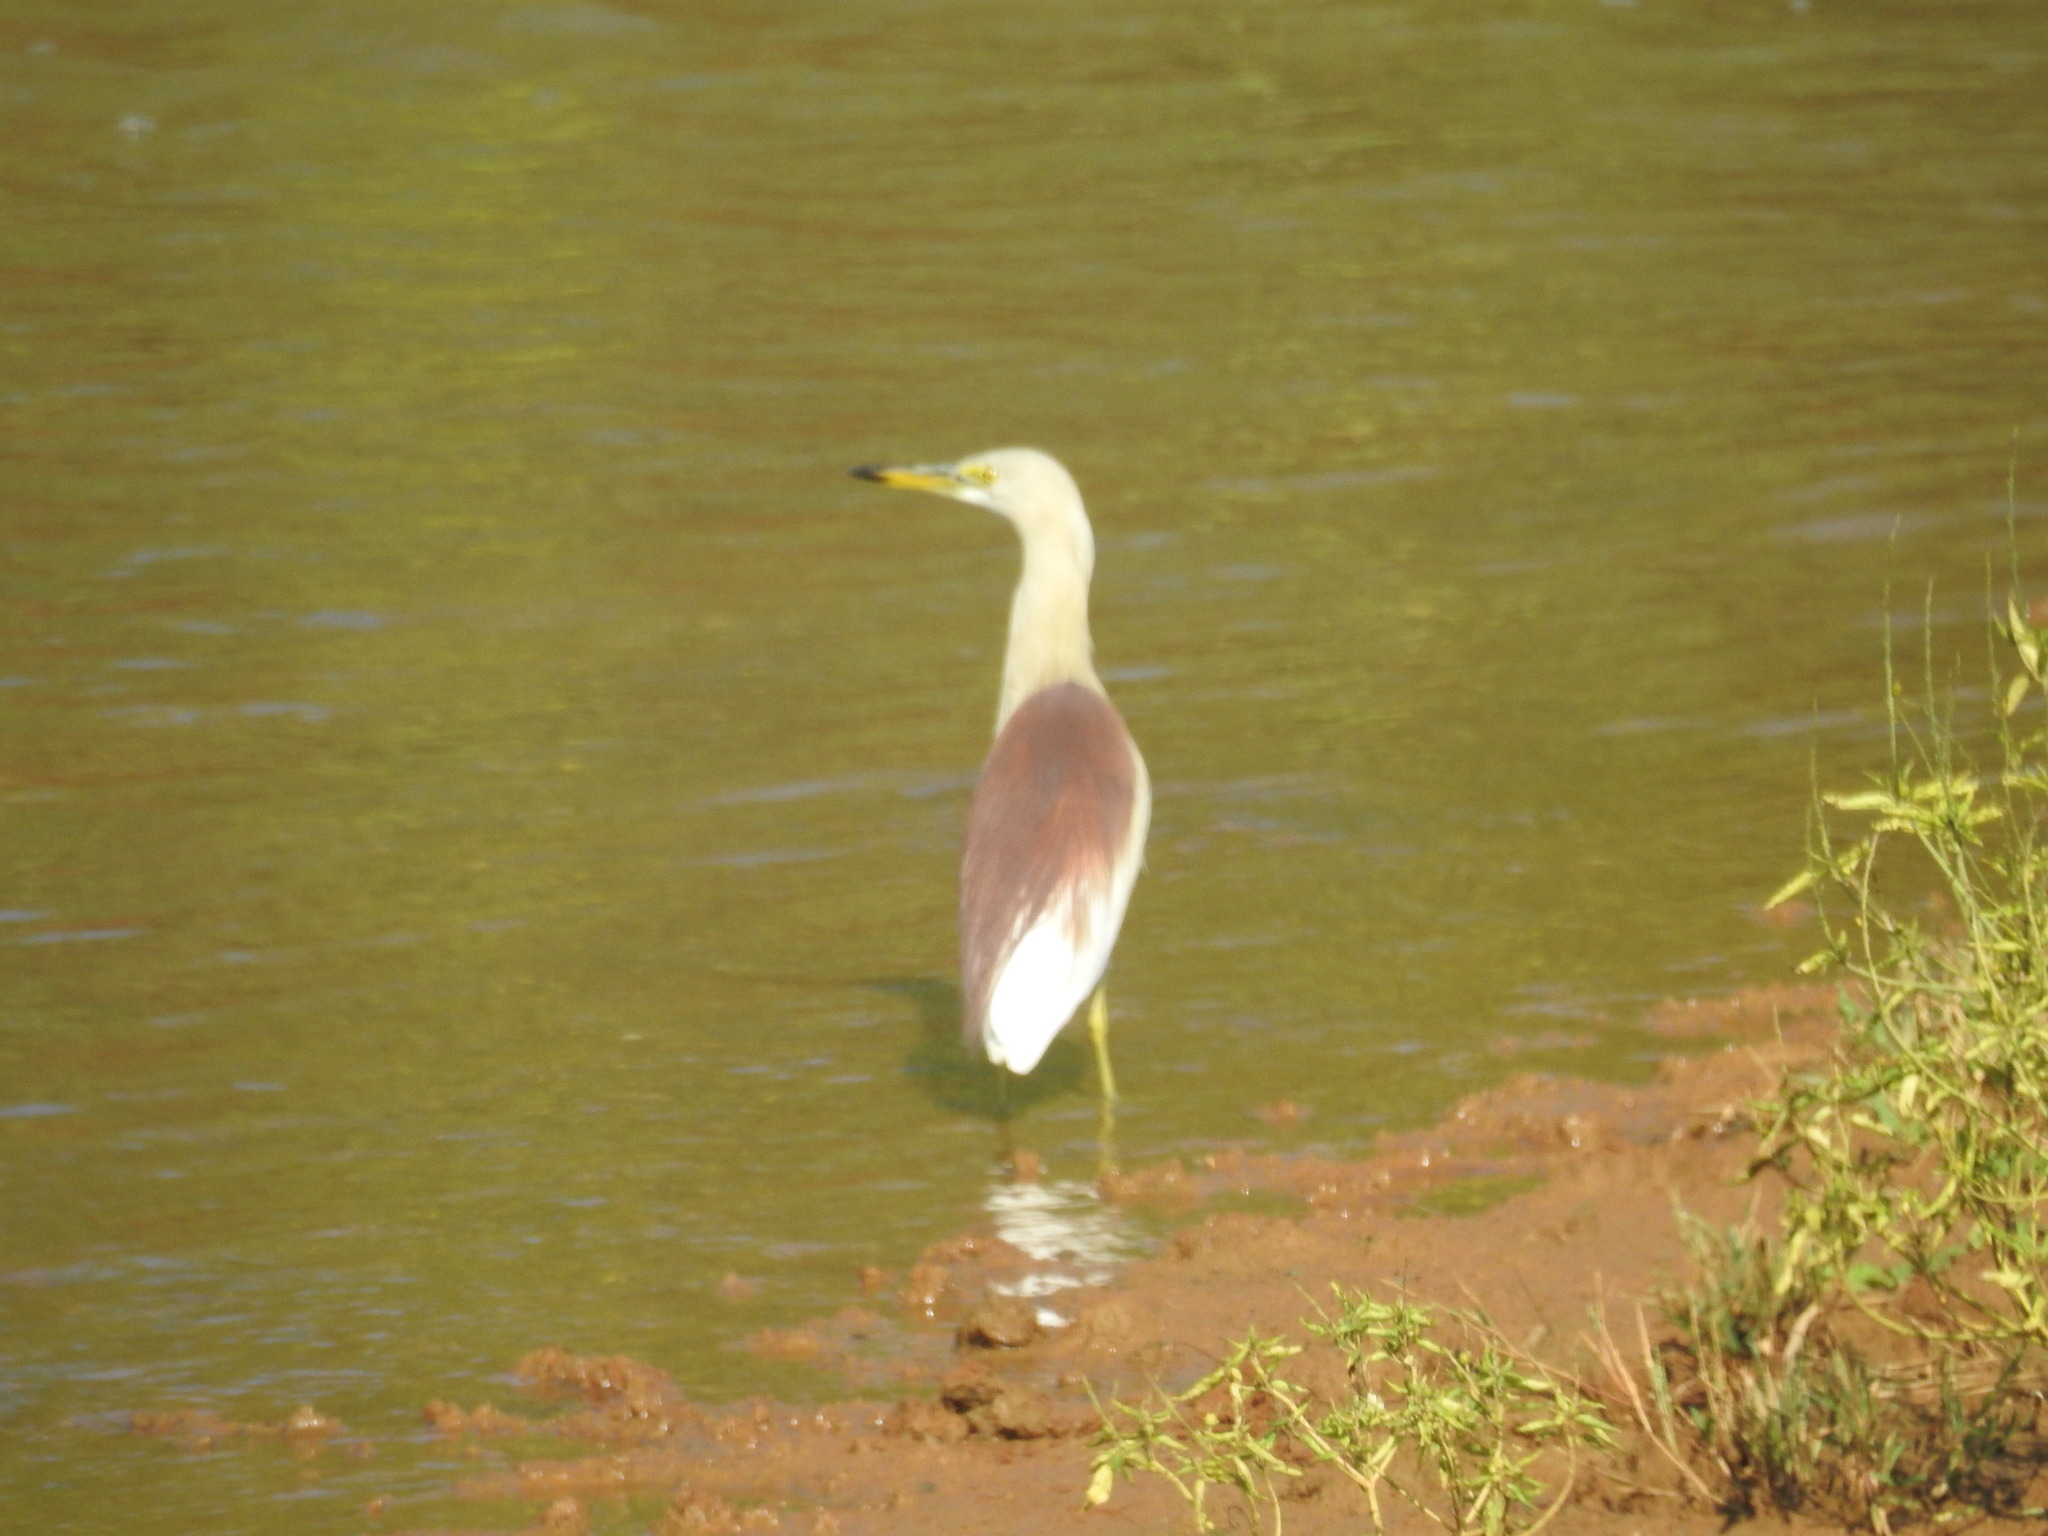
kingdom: Animalia
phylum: Chordata
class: Aves
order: Pelecaniformes
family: Ardeidae
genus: Ardeola
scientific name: Ardeola grayii
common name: Indian pond heron
